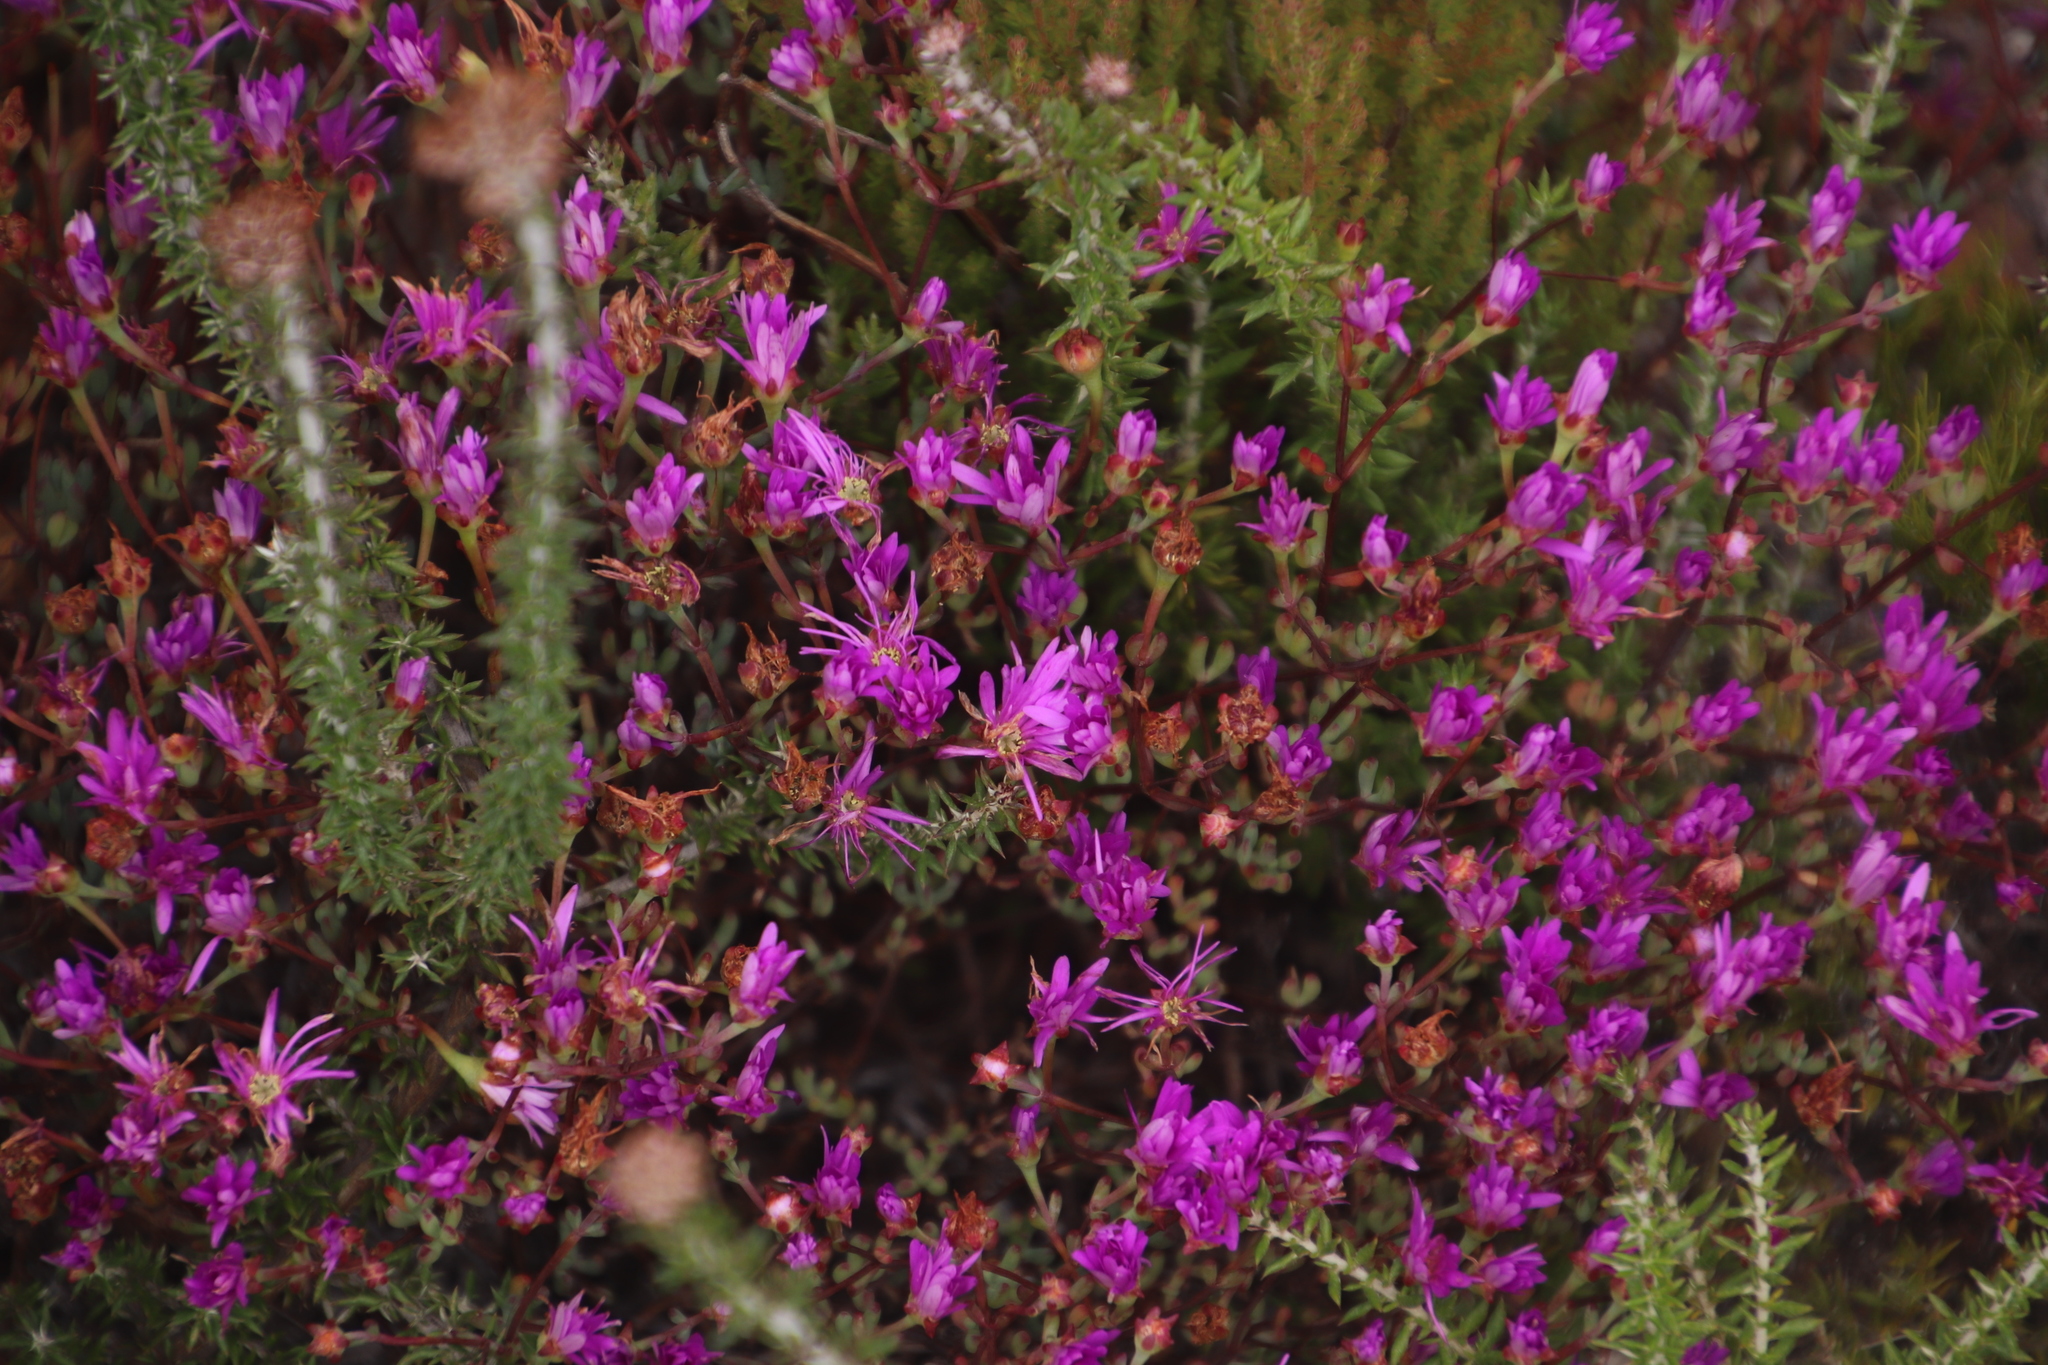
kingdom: Plantae
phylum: Tracheophyta
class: Magnoliopsida
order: Caryophyllales
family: Aizoaceae
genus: Lampranthus
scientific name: Lampranthus falcatus
